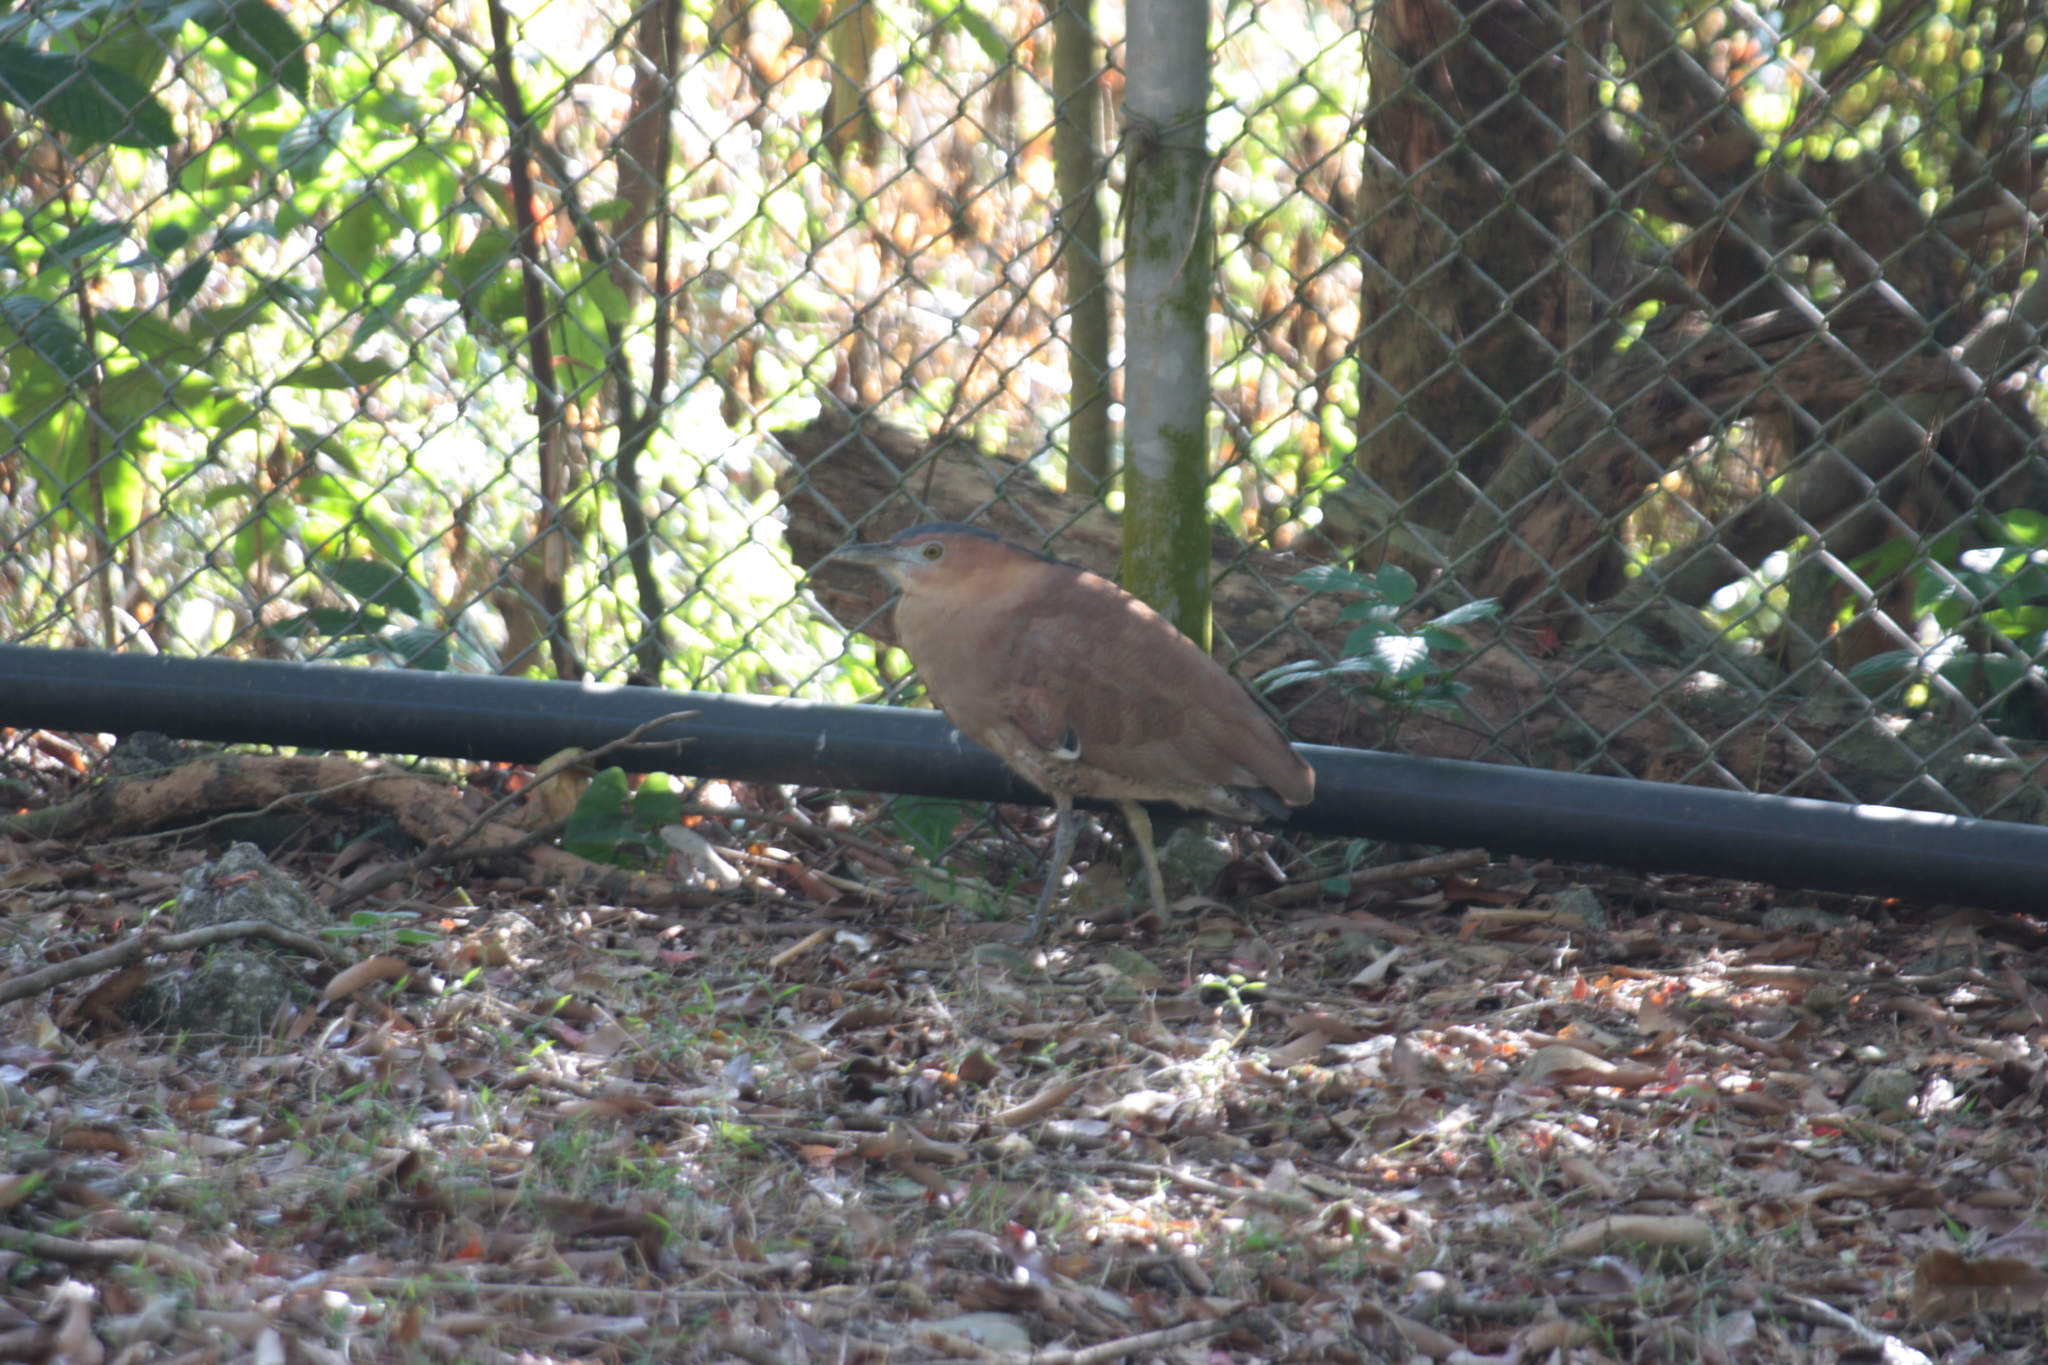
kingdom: Animalia
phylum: Chordata
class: Aves
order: Pelecaniformes
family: Ardeidae
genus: Gorsachius
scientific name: Gorsachius melanolophus
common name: Malayan night heron
